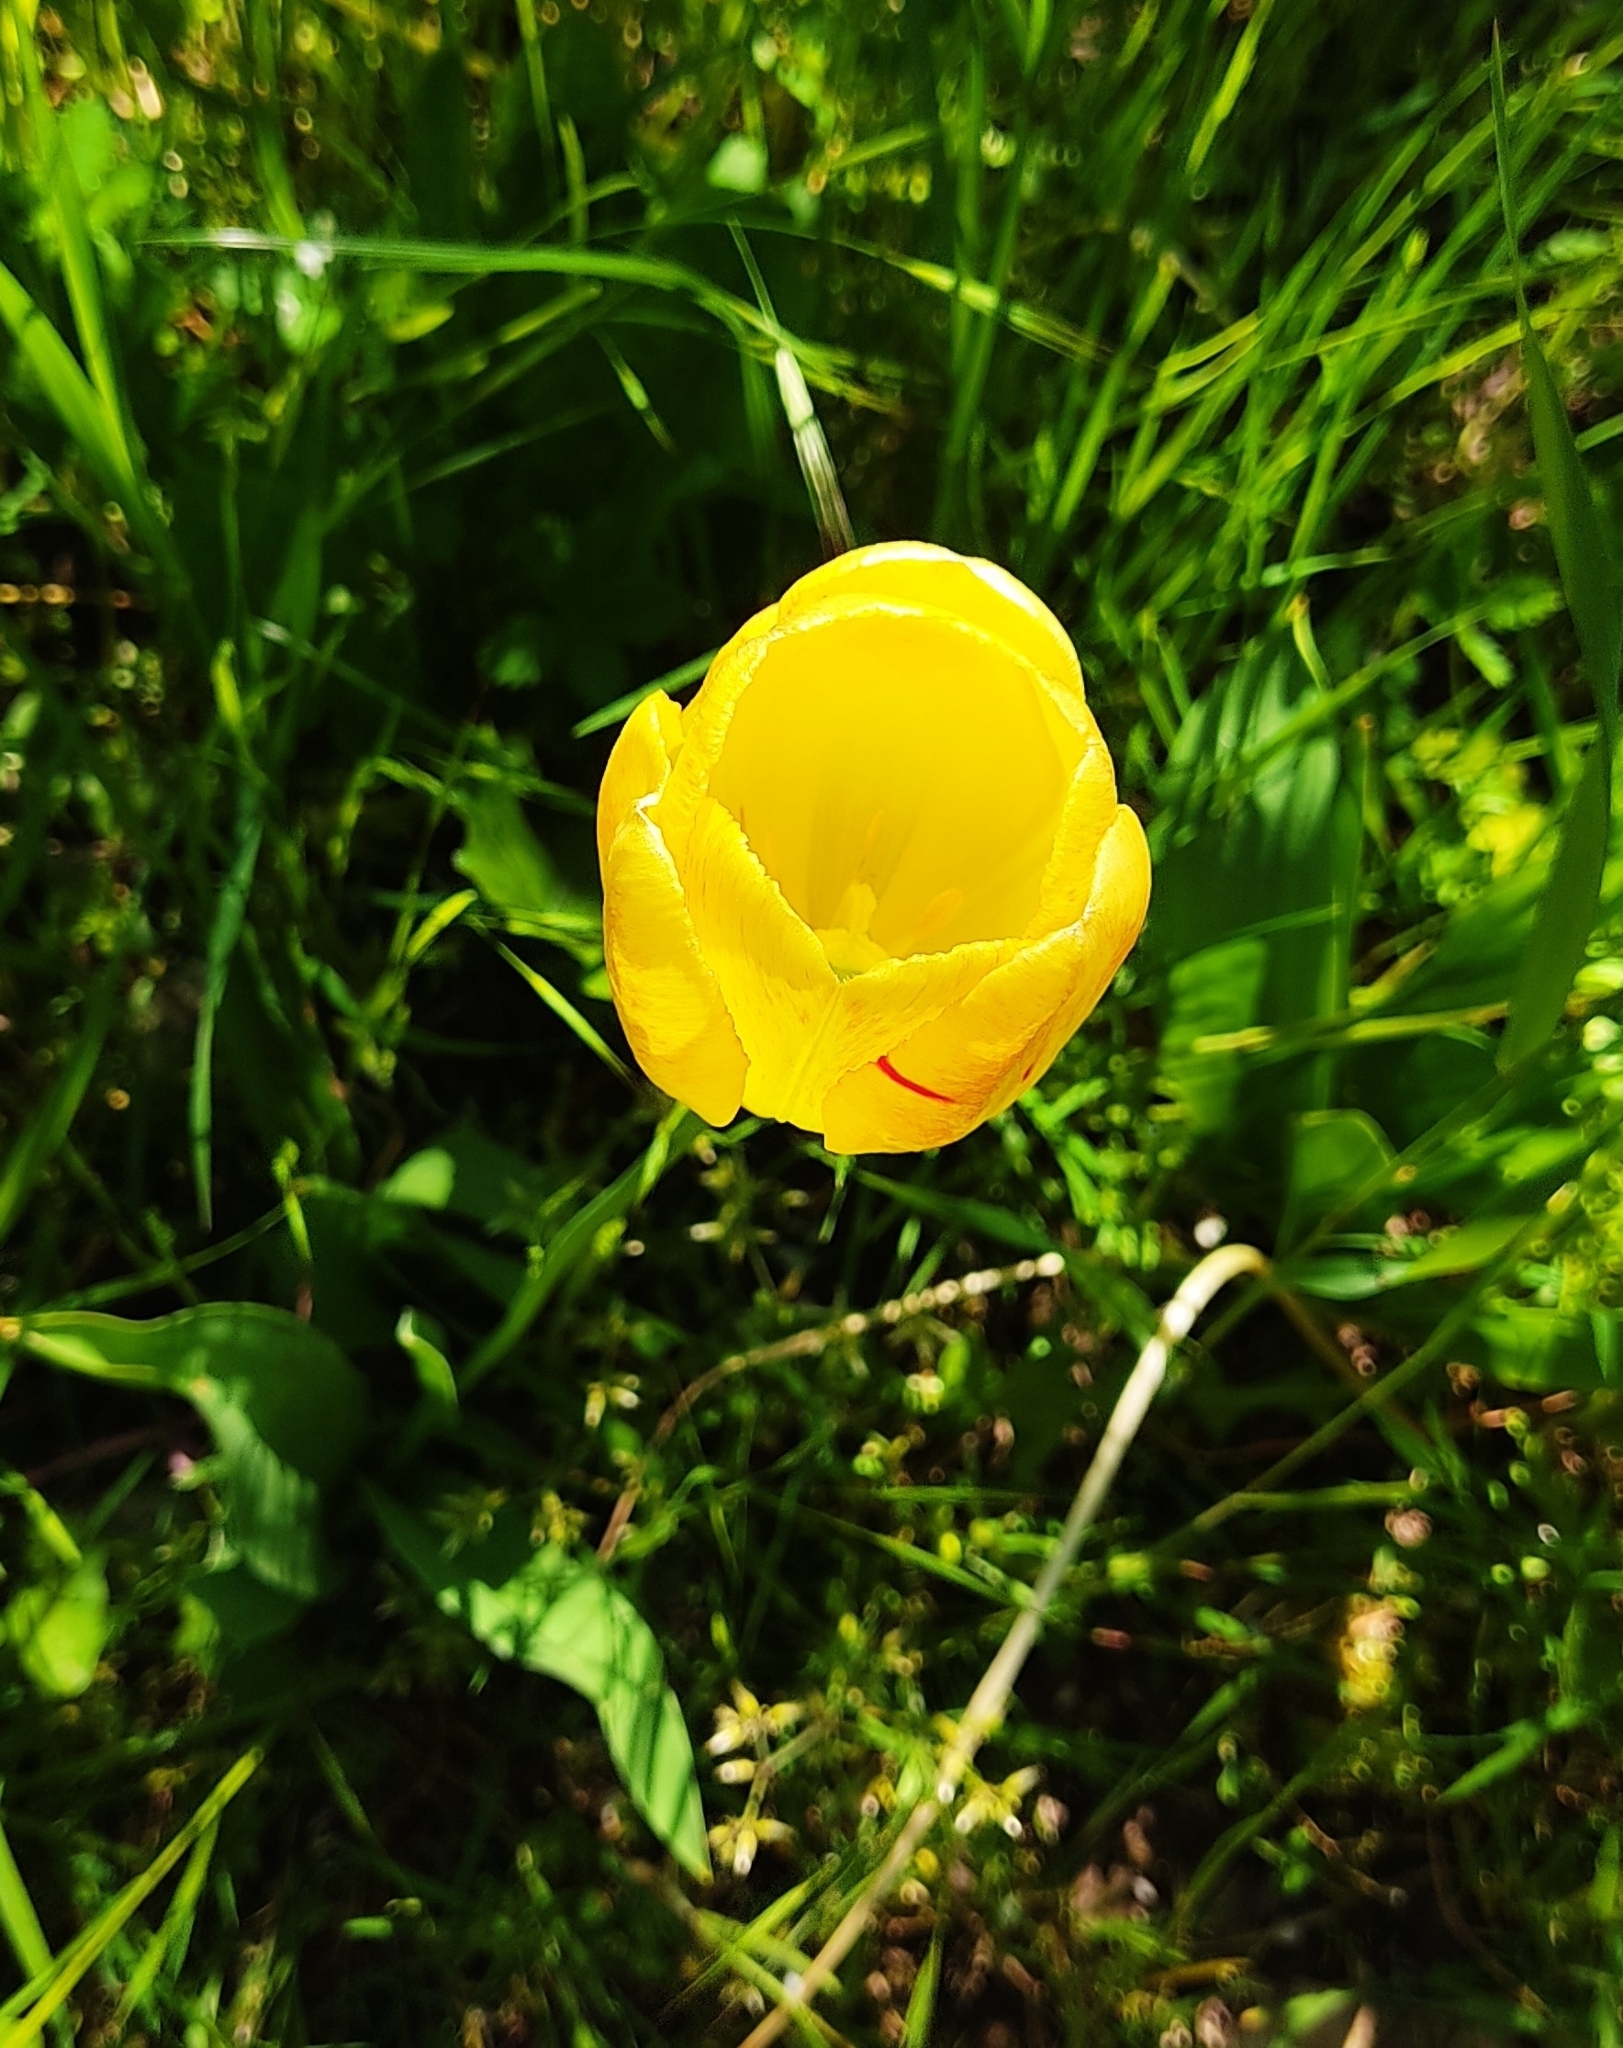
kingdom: Plantae
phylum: Tracheophyta
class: Liliopsida
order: Liliales
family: Liliaceae
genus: Tulipa
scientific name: Tulipa gesneriana
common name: Garden tulip
